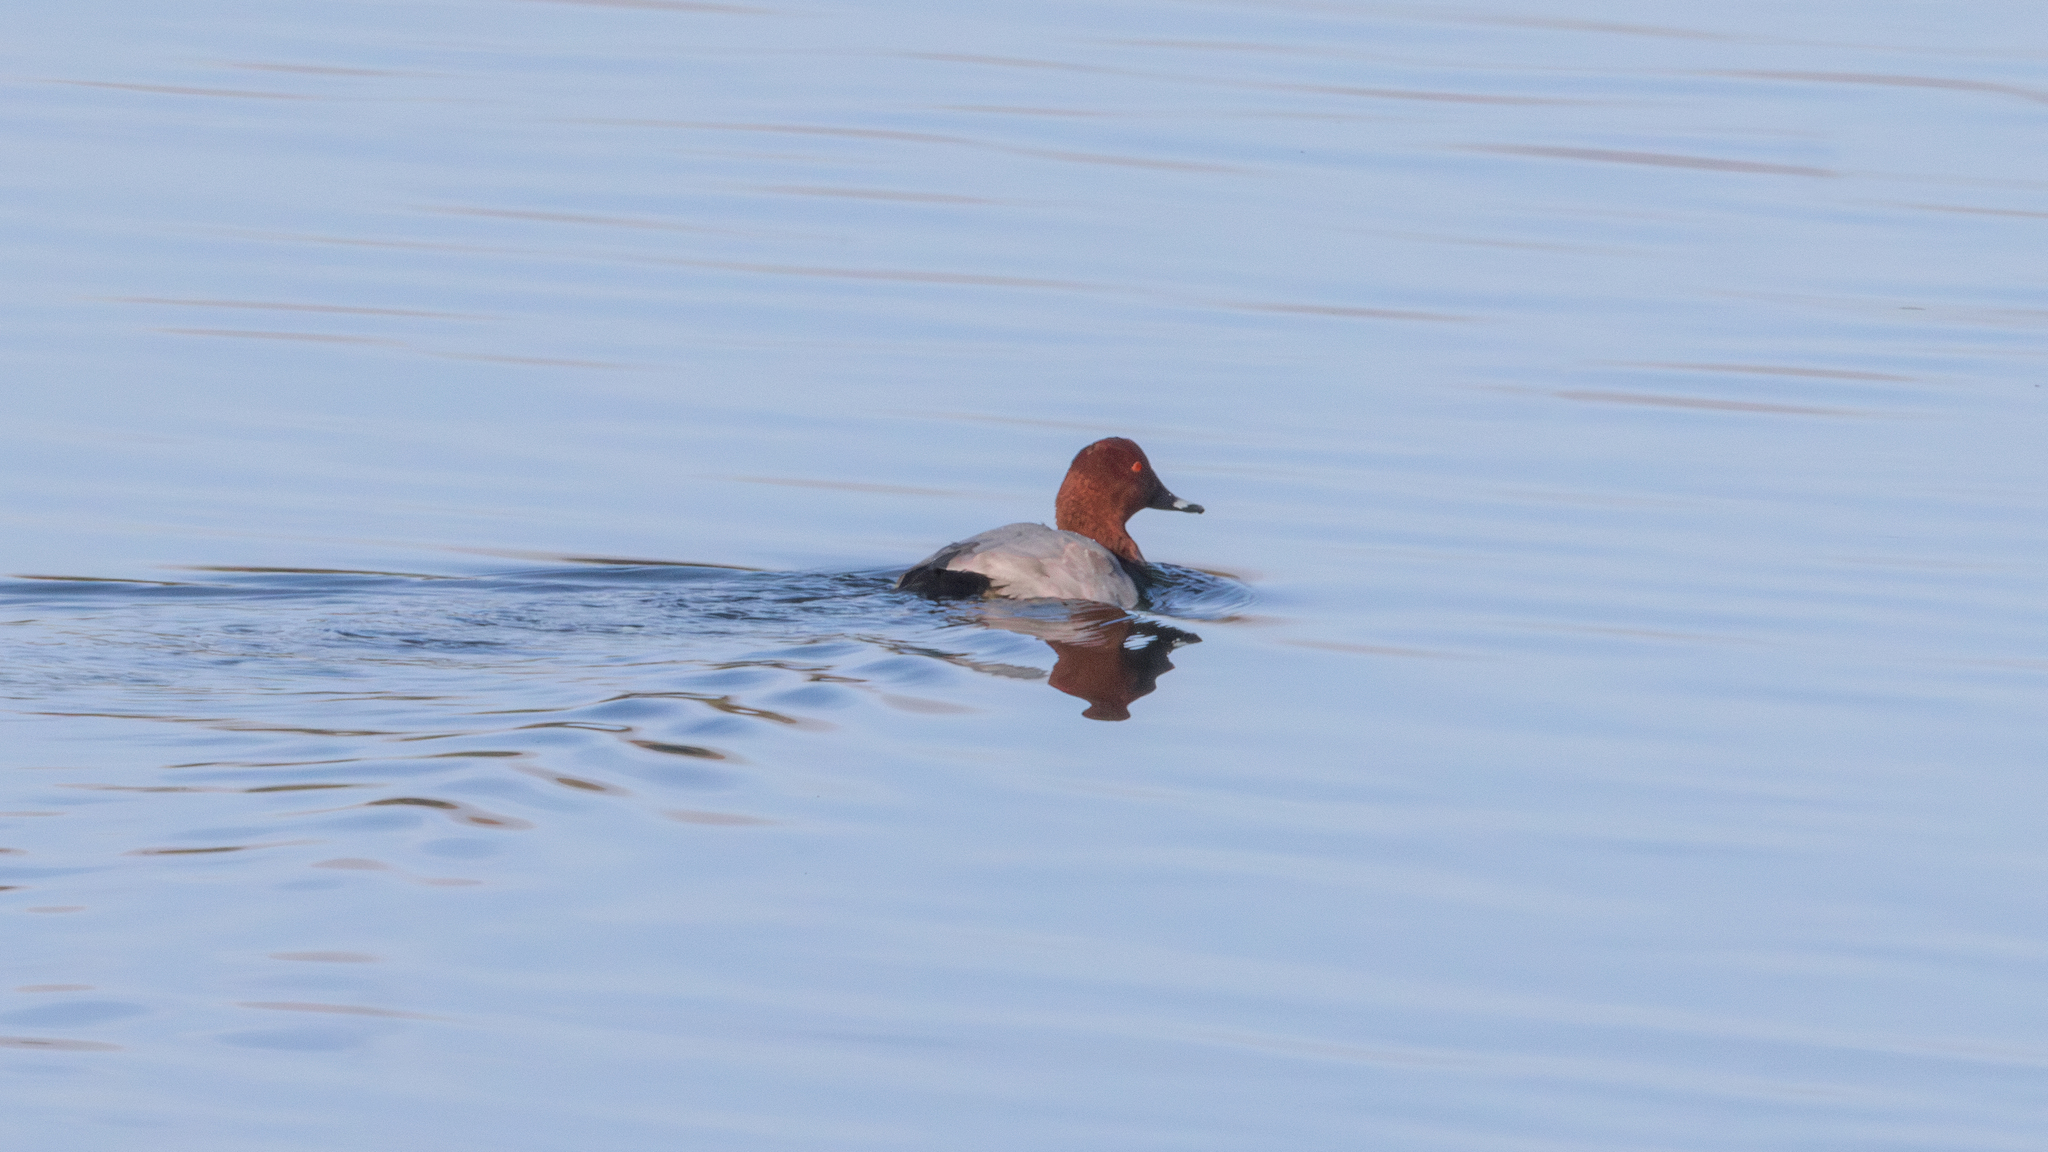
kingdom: Animalia
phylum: Chordata
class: Aves
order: Anseriformes
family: Anatidae
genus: Aythya
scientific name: Aythya ferina
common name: Common pochard
